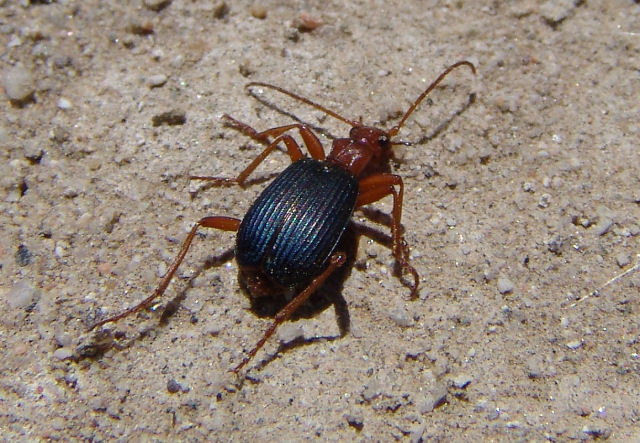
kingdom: Animalia
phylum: Arthropoda
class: Insecta
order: Coleoptera
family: Carabidae
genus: Brachinus
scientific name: Brachinus
